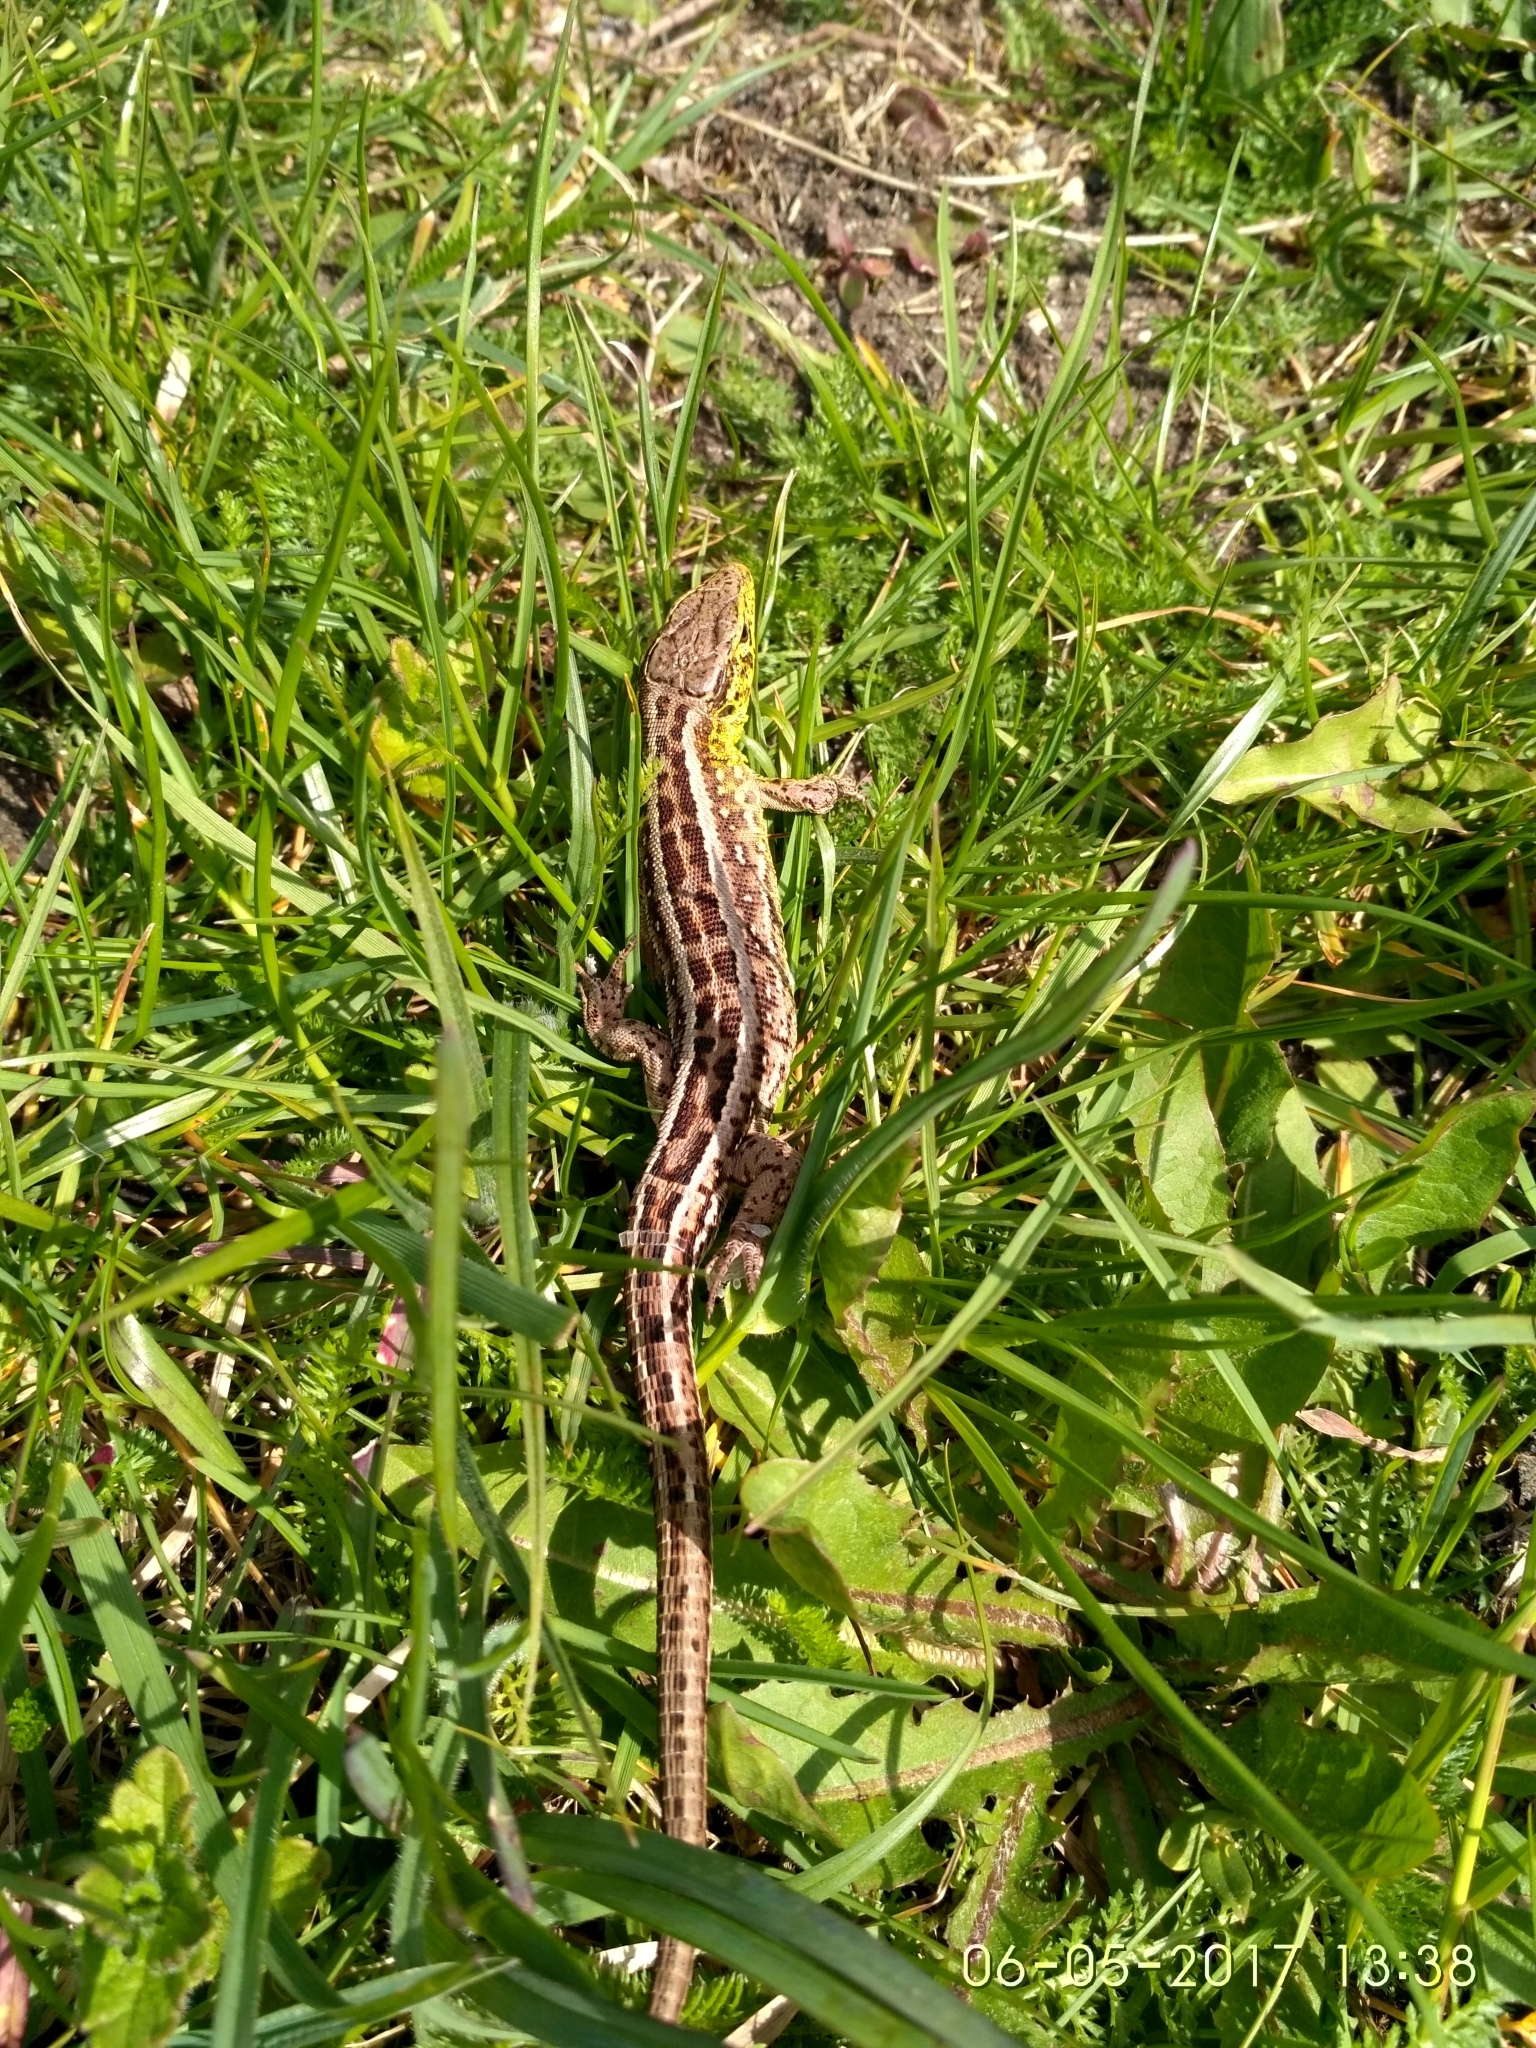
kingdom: Animalia
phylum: Chordata
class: Squamata
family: Lacertidae
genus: Lacerta
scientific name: Lacerta agilis
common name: Sand lizard
